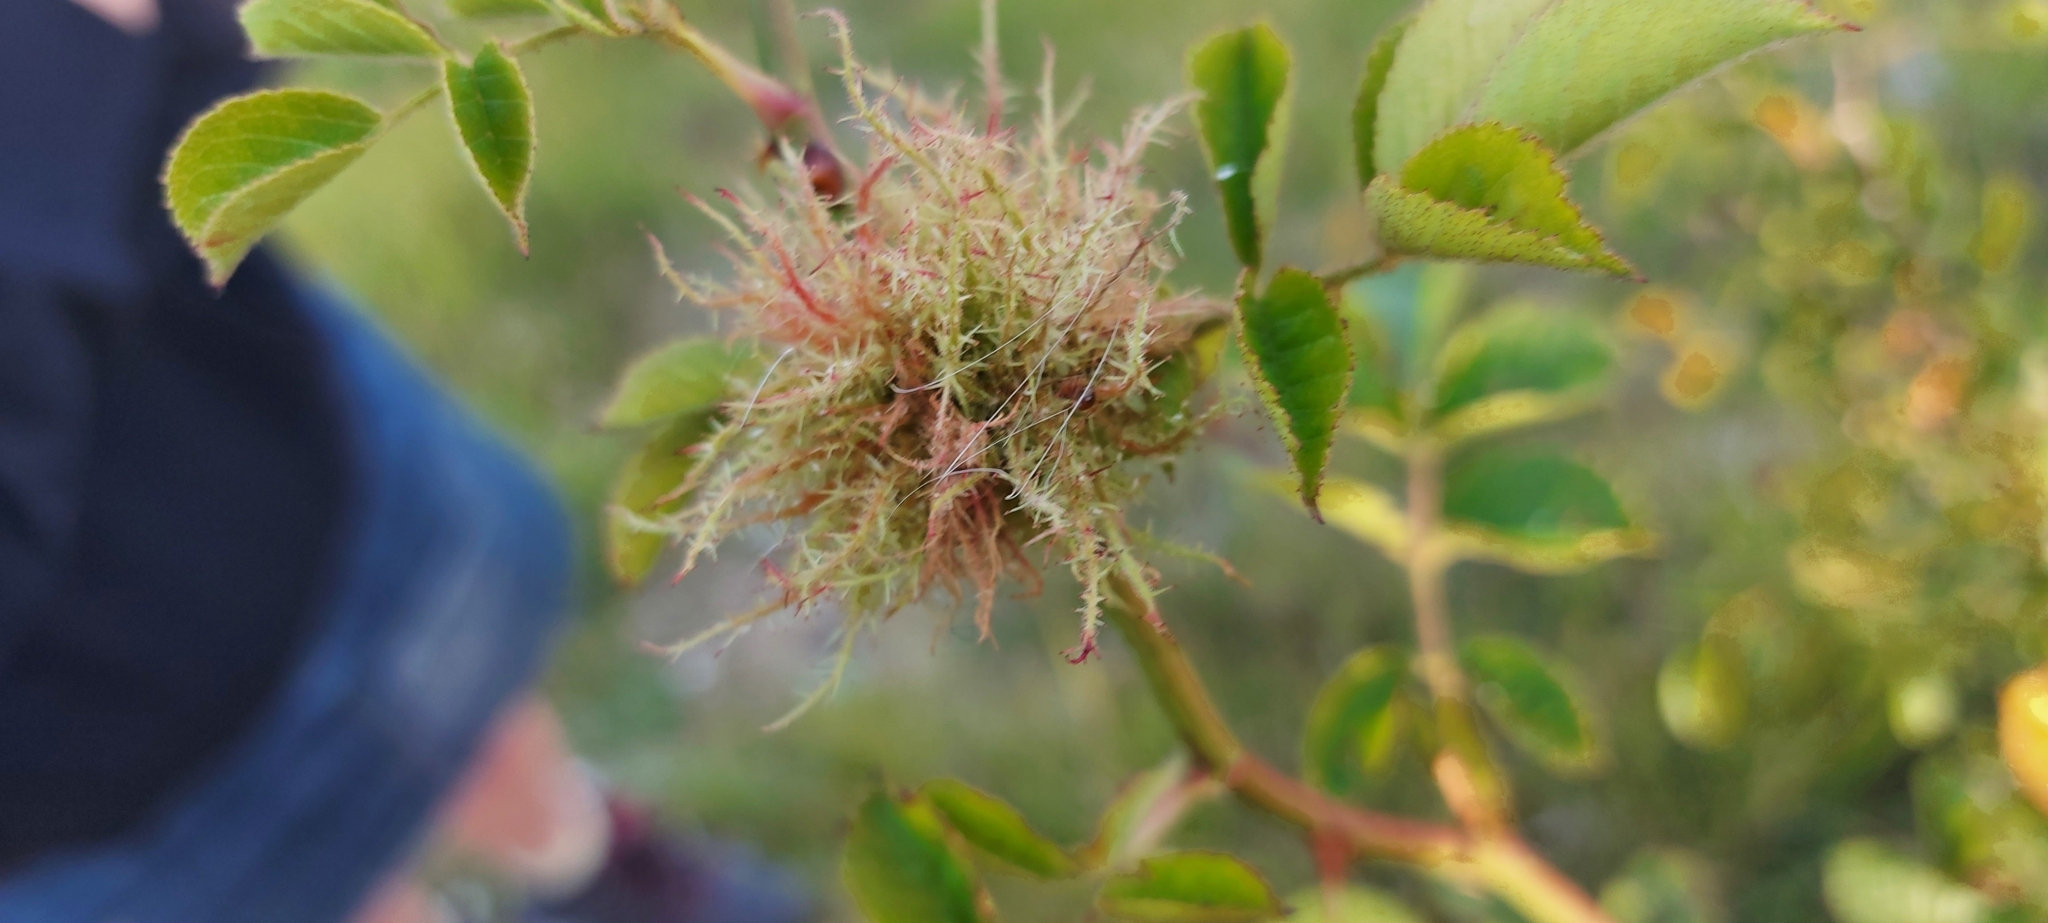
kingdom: Animalia
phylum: Arthropoda
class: Insecta
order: Hymenoptera
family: Cynipidae
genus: Diplolepis
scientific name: Diplolepis rosae
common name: Bedeguar gall
